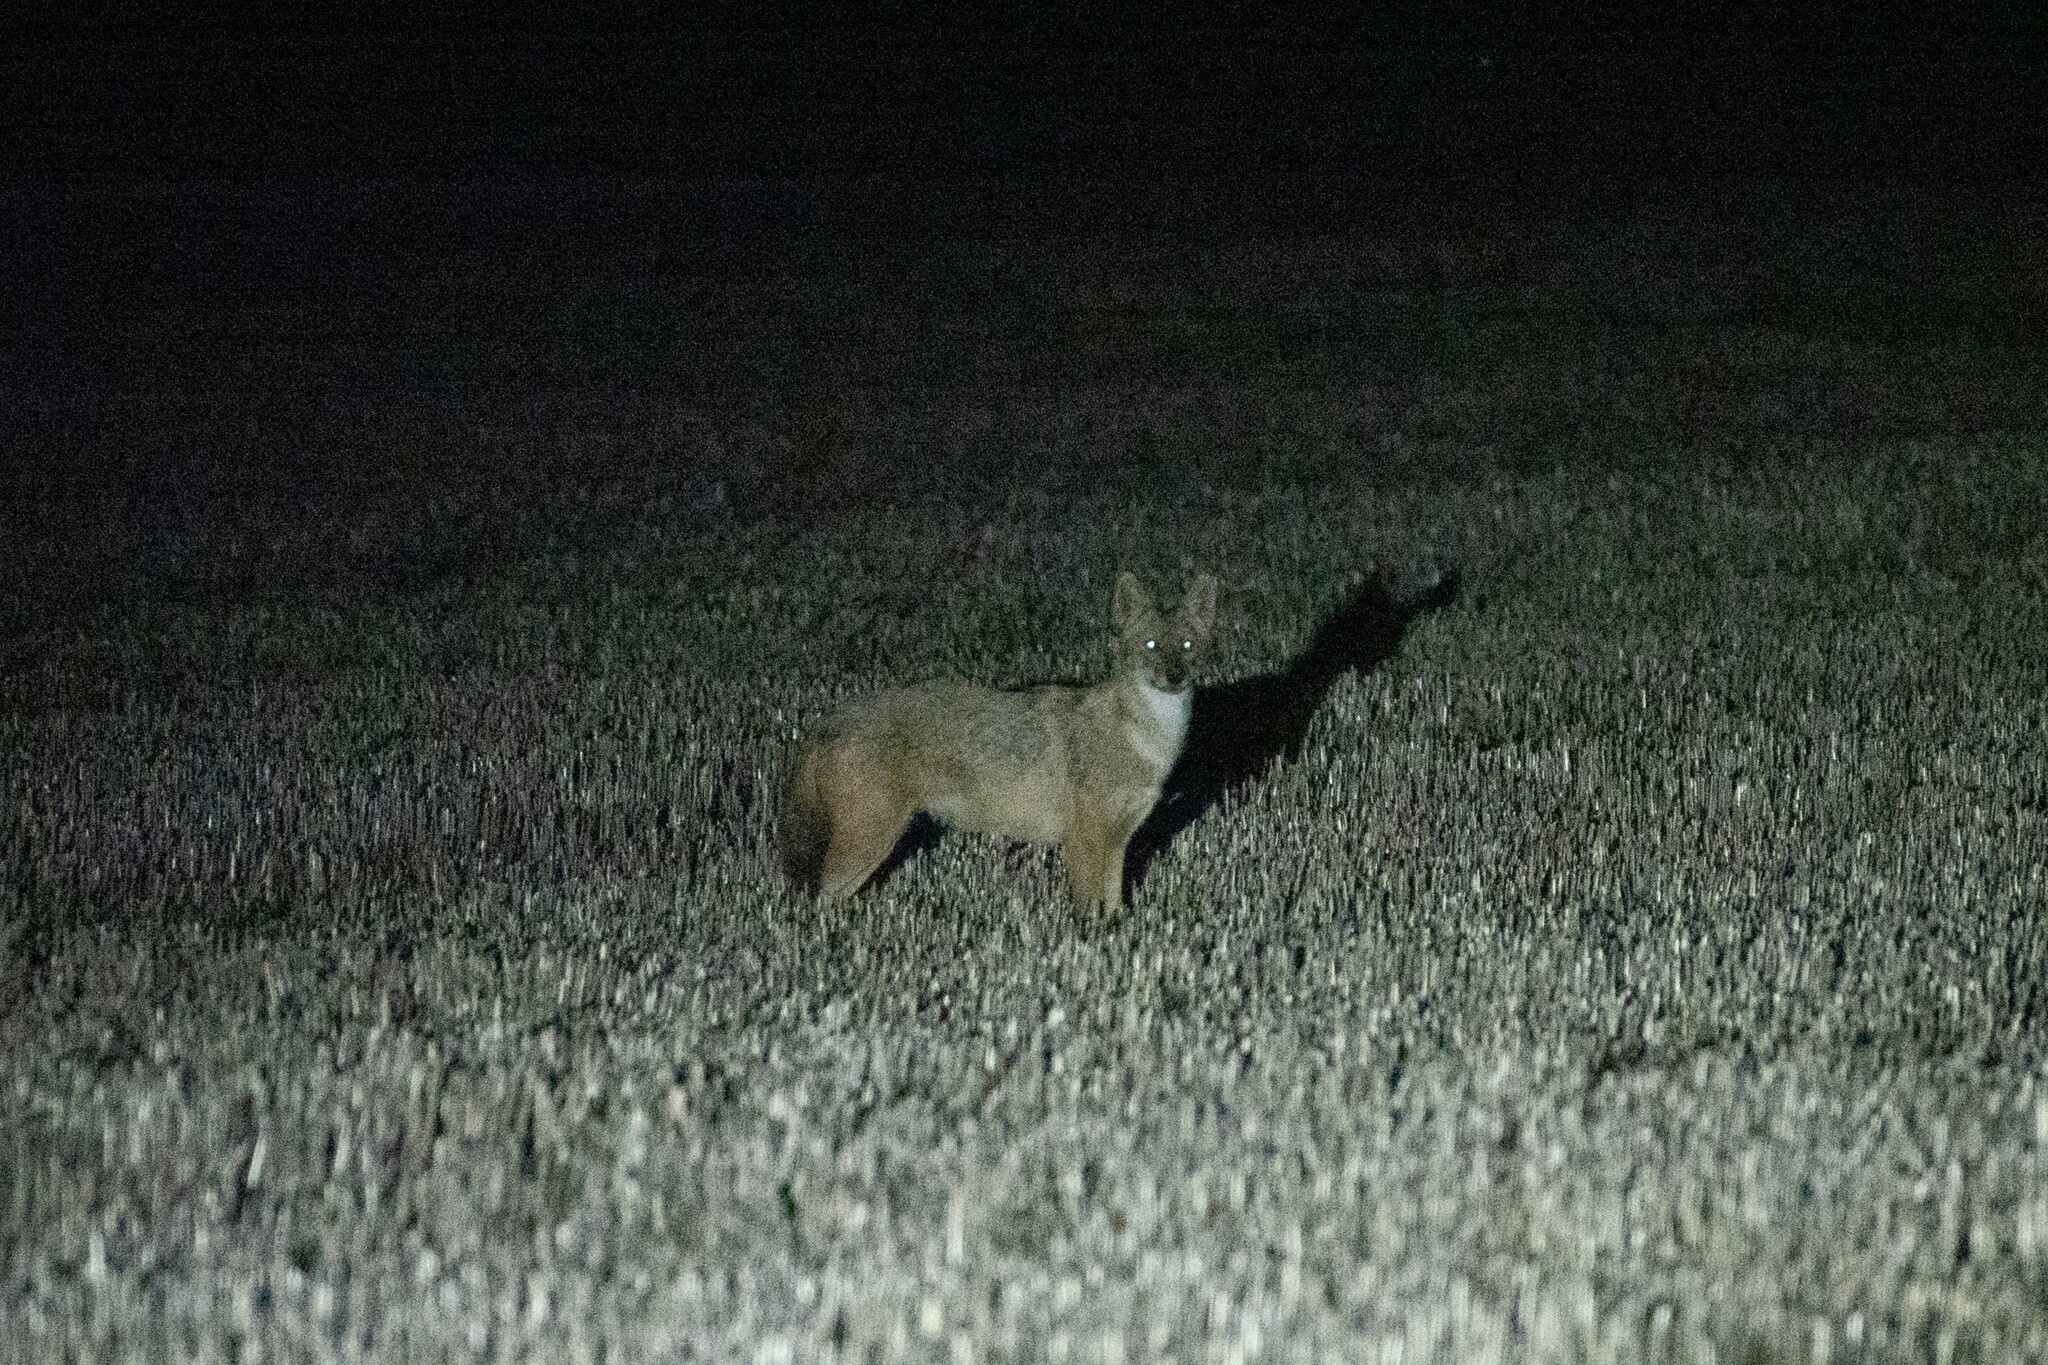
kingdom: Animalia
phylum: Chordata
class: Mammalia
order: Carnivora
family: Canidae
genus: Canis
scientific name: Canis aureus
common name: Golden jackal
